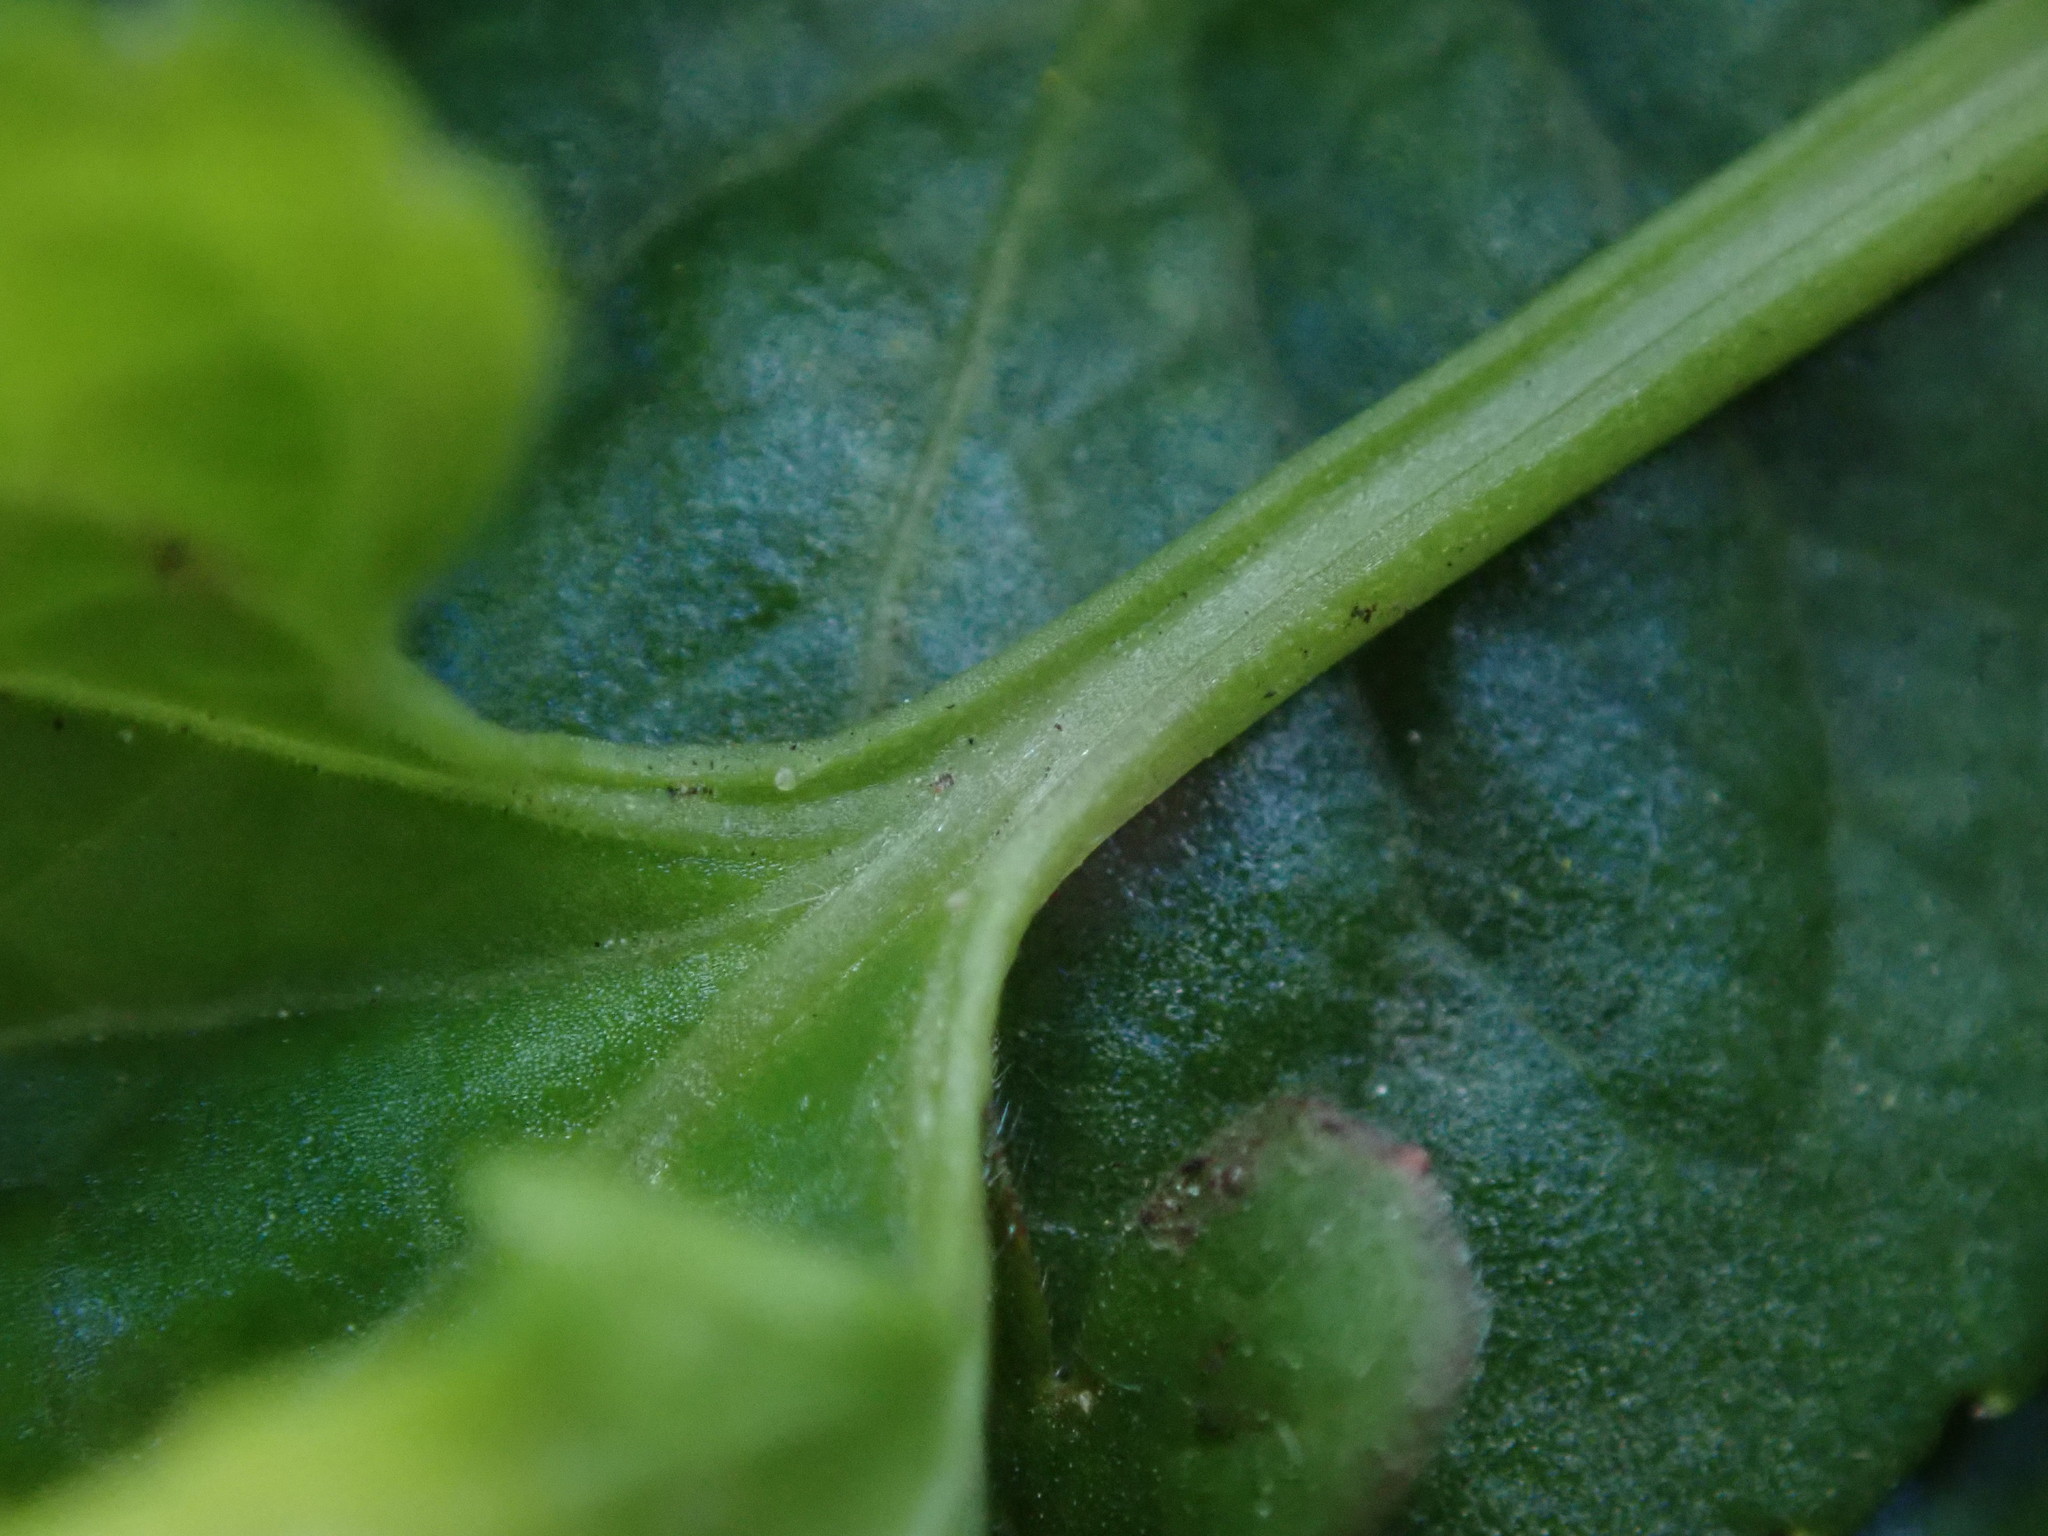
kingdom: Plantae
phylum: Tracheophyta
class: Magnoliopsida
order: Malpighiales
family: Violaceae
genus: Viola
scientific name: Viola odorata
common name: Sweet violet
